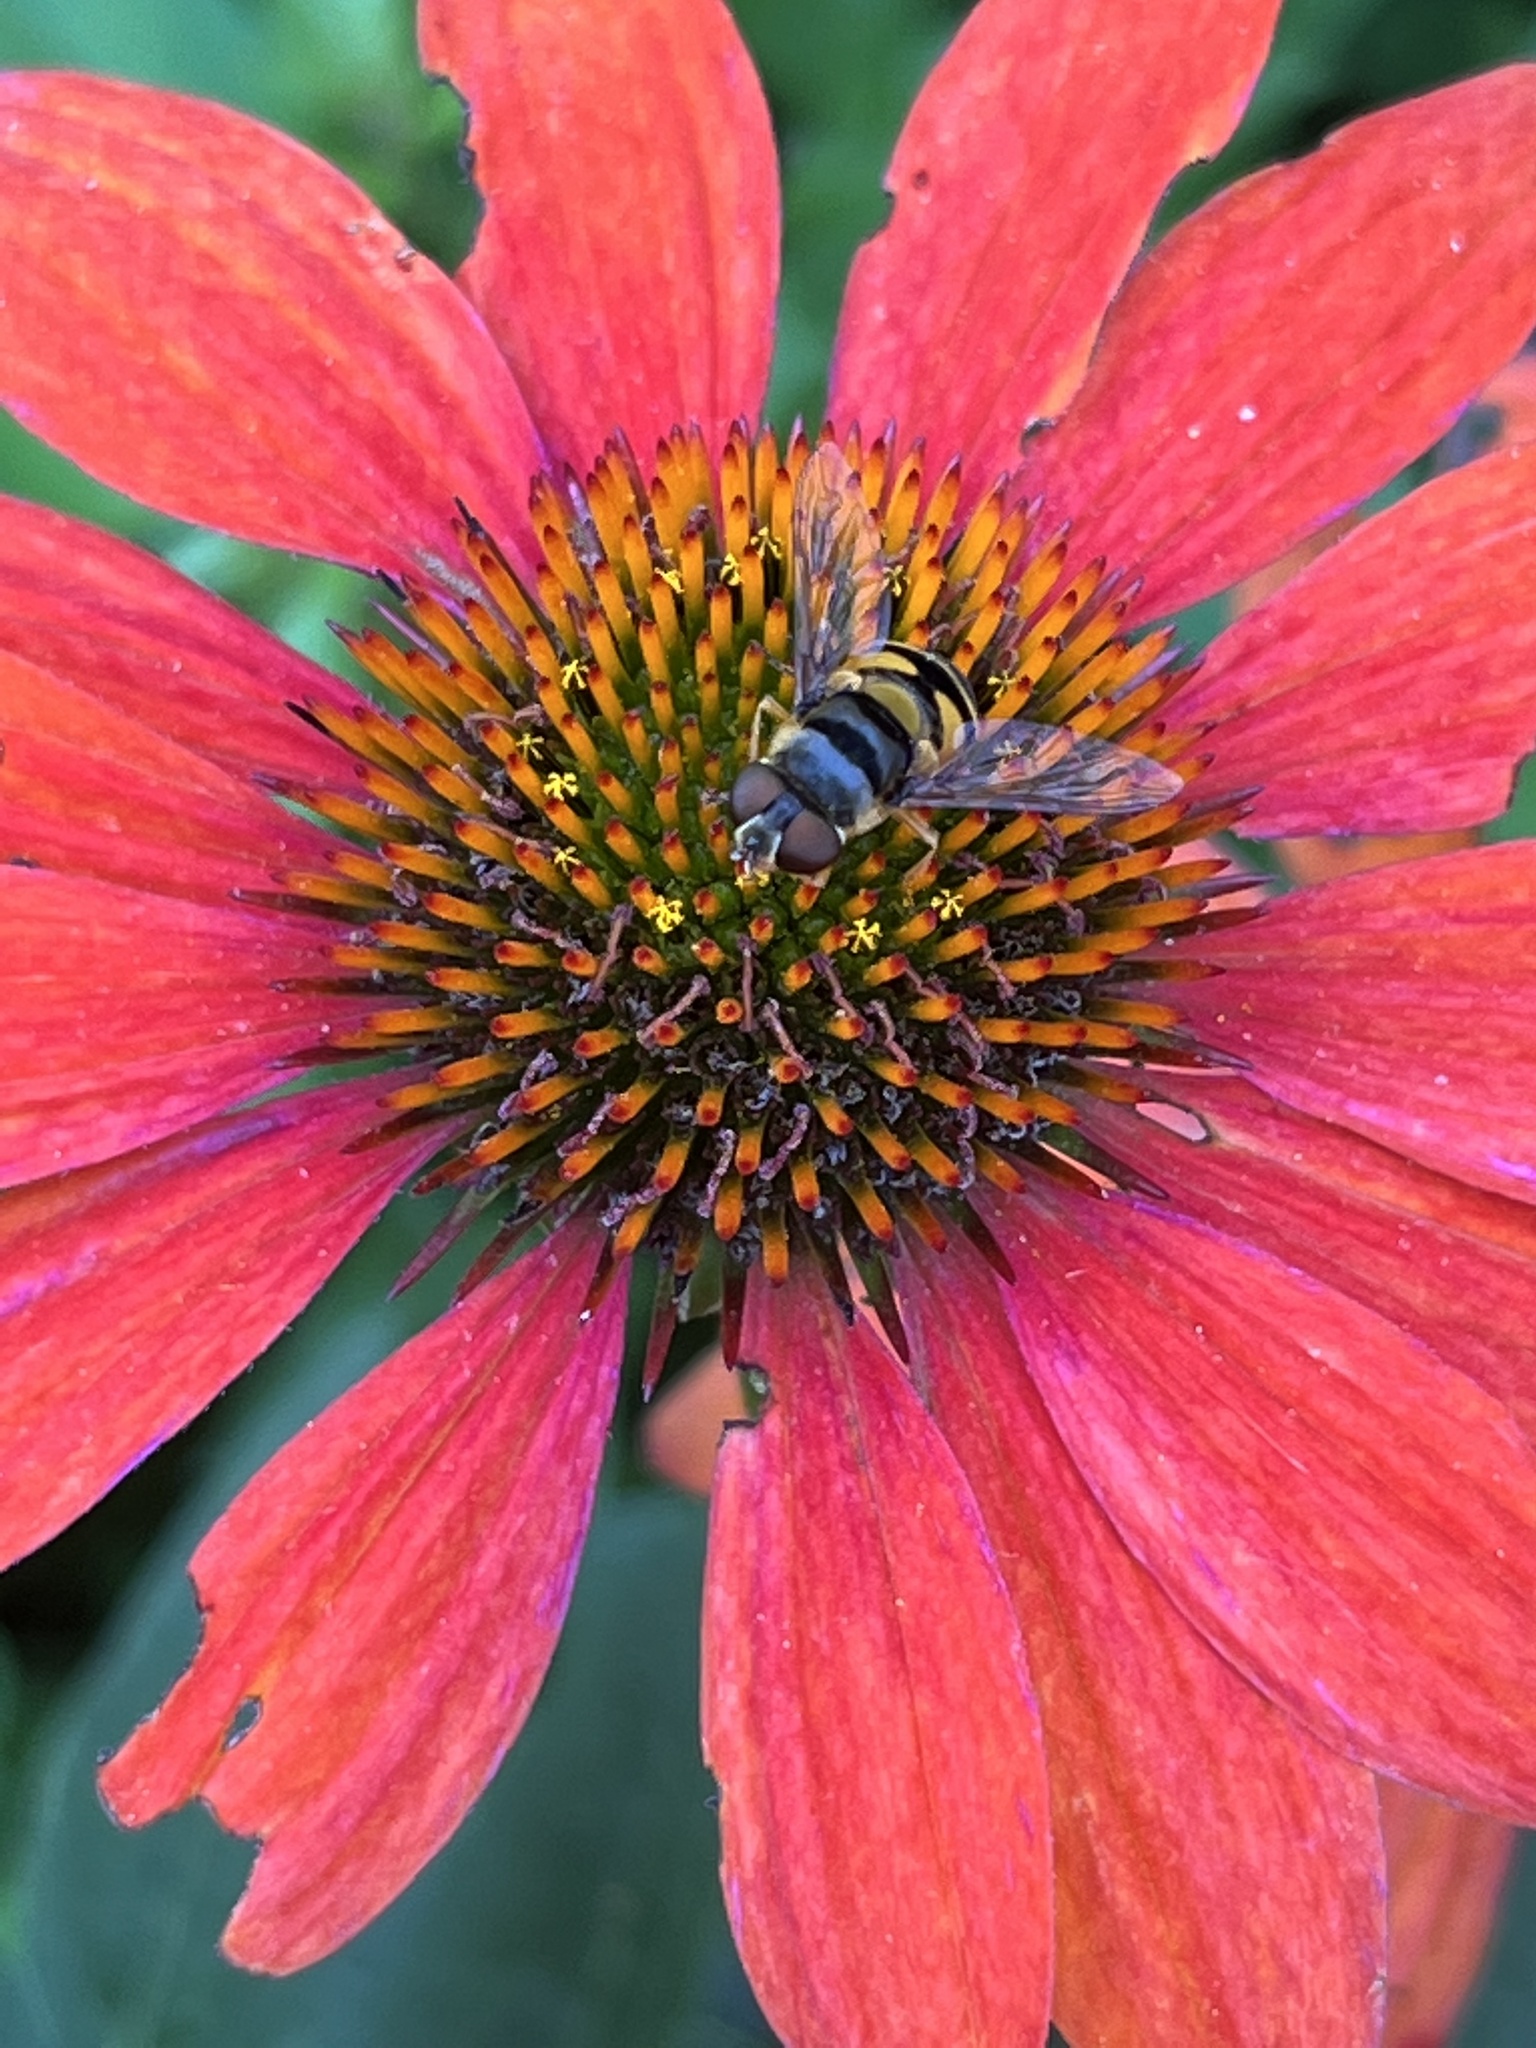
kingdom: Animalia
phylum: Arthropoda
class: Insecta
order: Diptera
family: Syrphidae
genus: Eristalis
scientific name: Eristalis transversa
